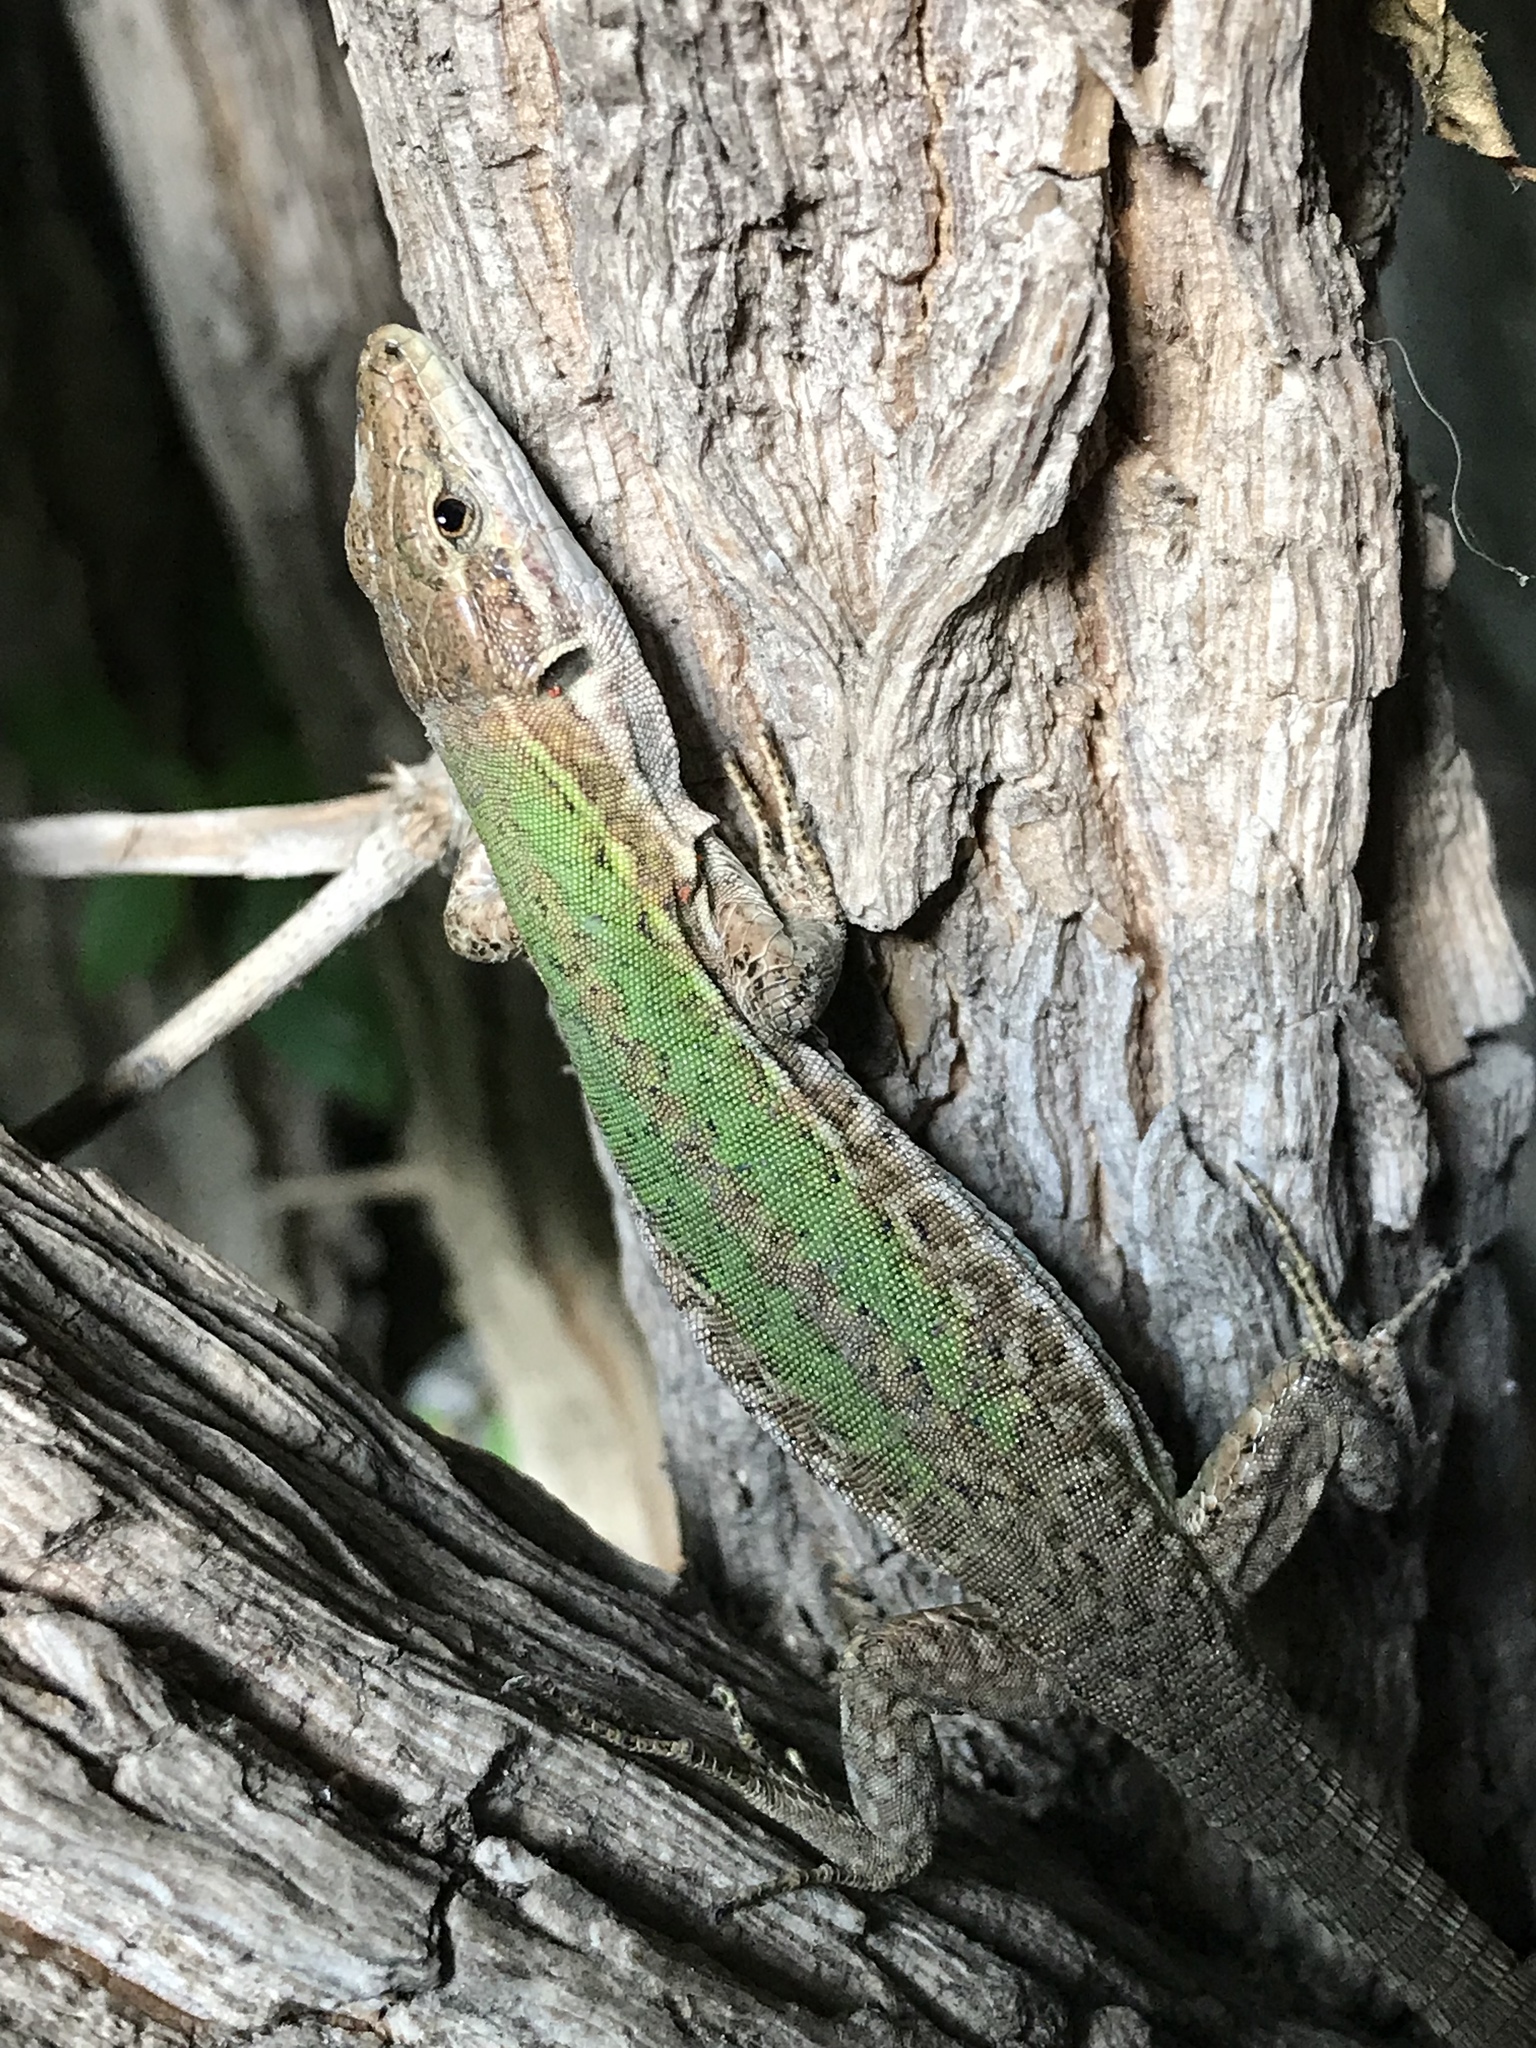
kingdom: Animalia
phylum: Chordata
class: Squamata
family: Lacertidae
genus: Podarcis
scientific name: Podarcis siculus
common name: Italian wall lizard
